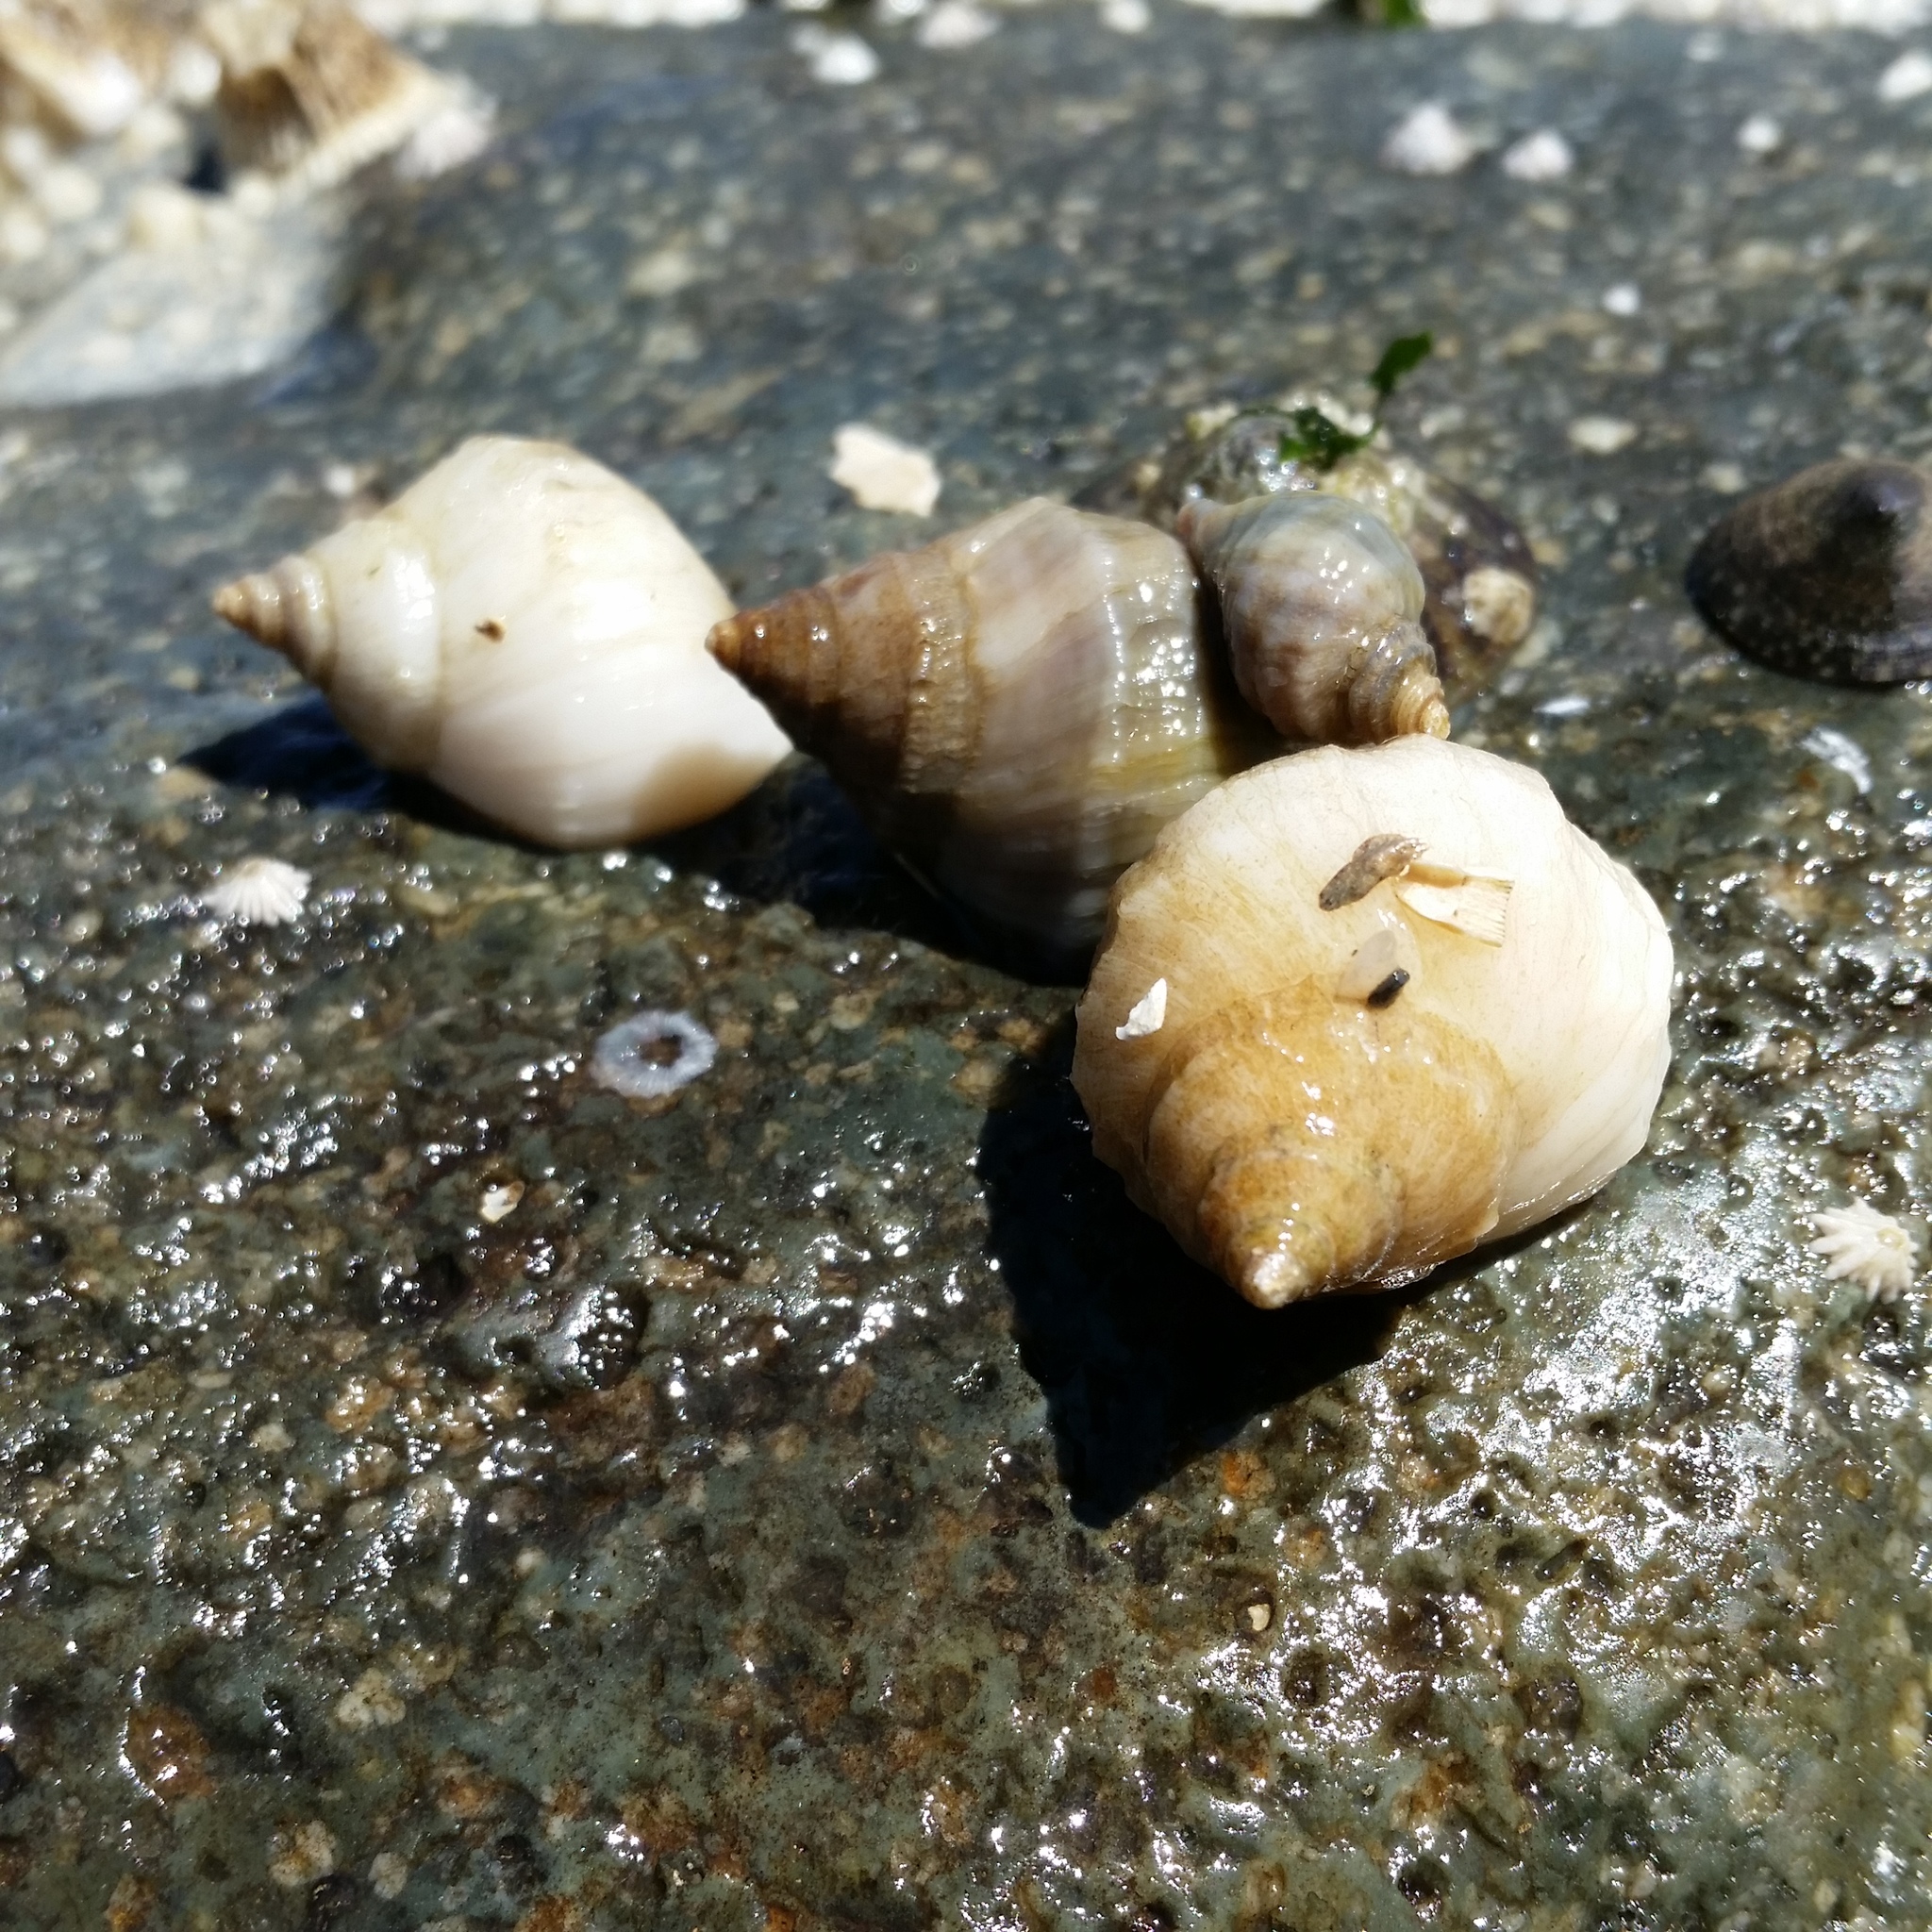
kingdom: Animalia
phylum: Mollusca
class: Gastropoda
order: Neogastropoda
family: Muricidae
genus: Nucella
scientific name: Nucella lamellosa
